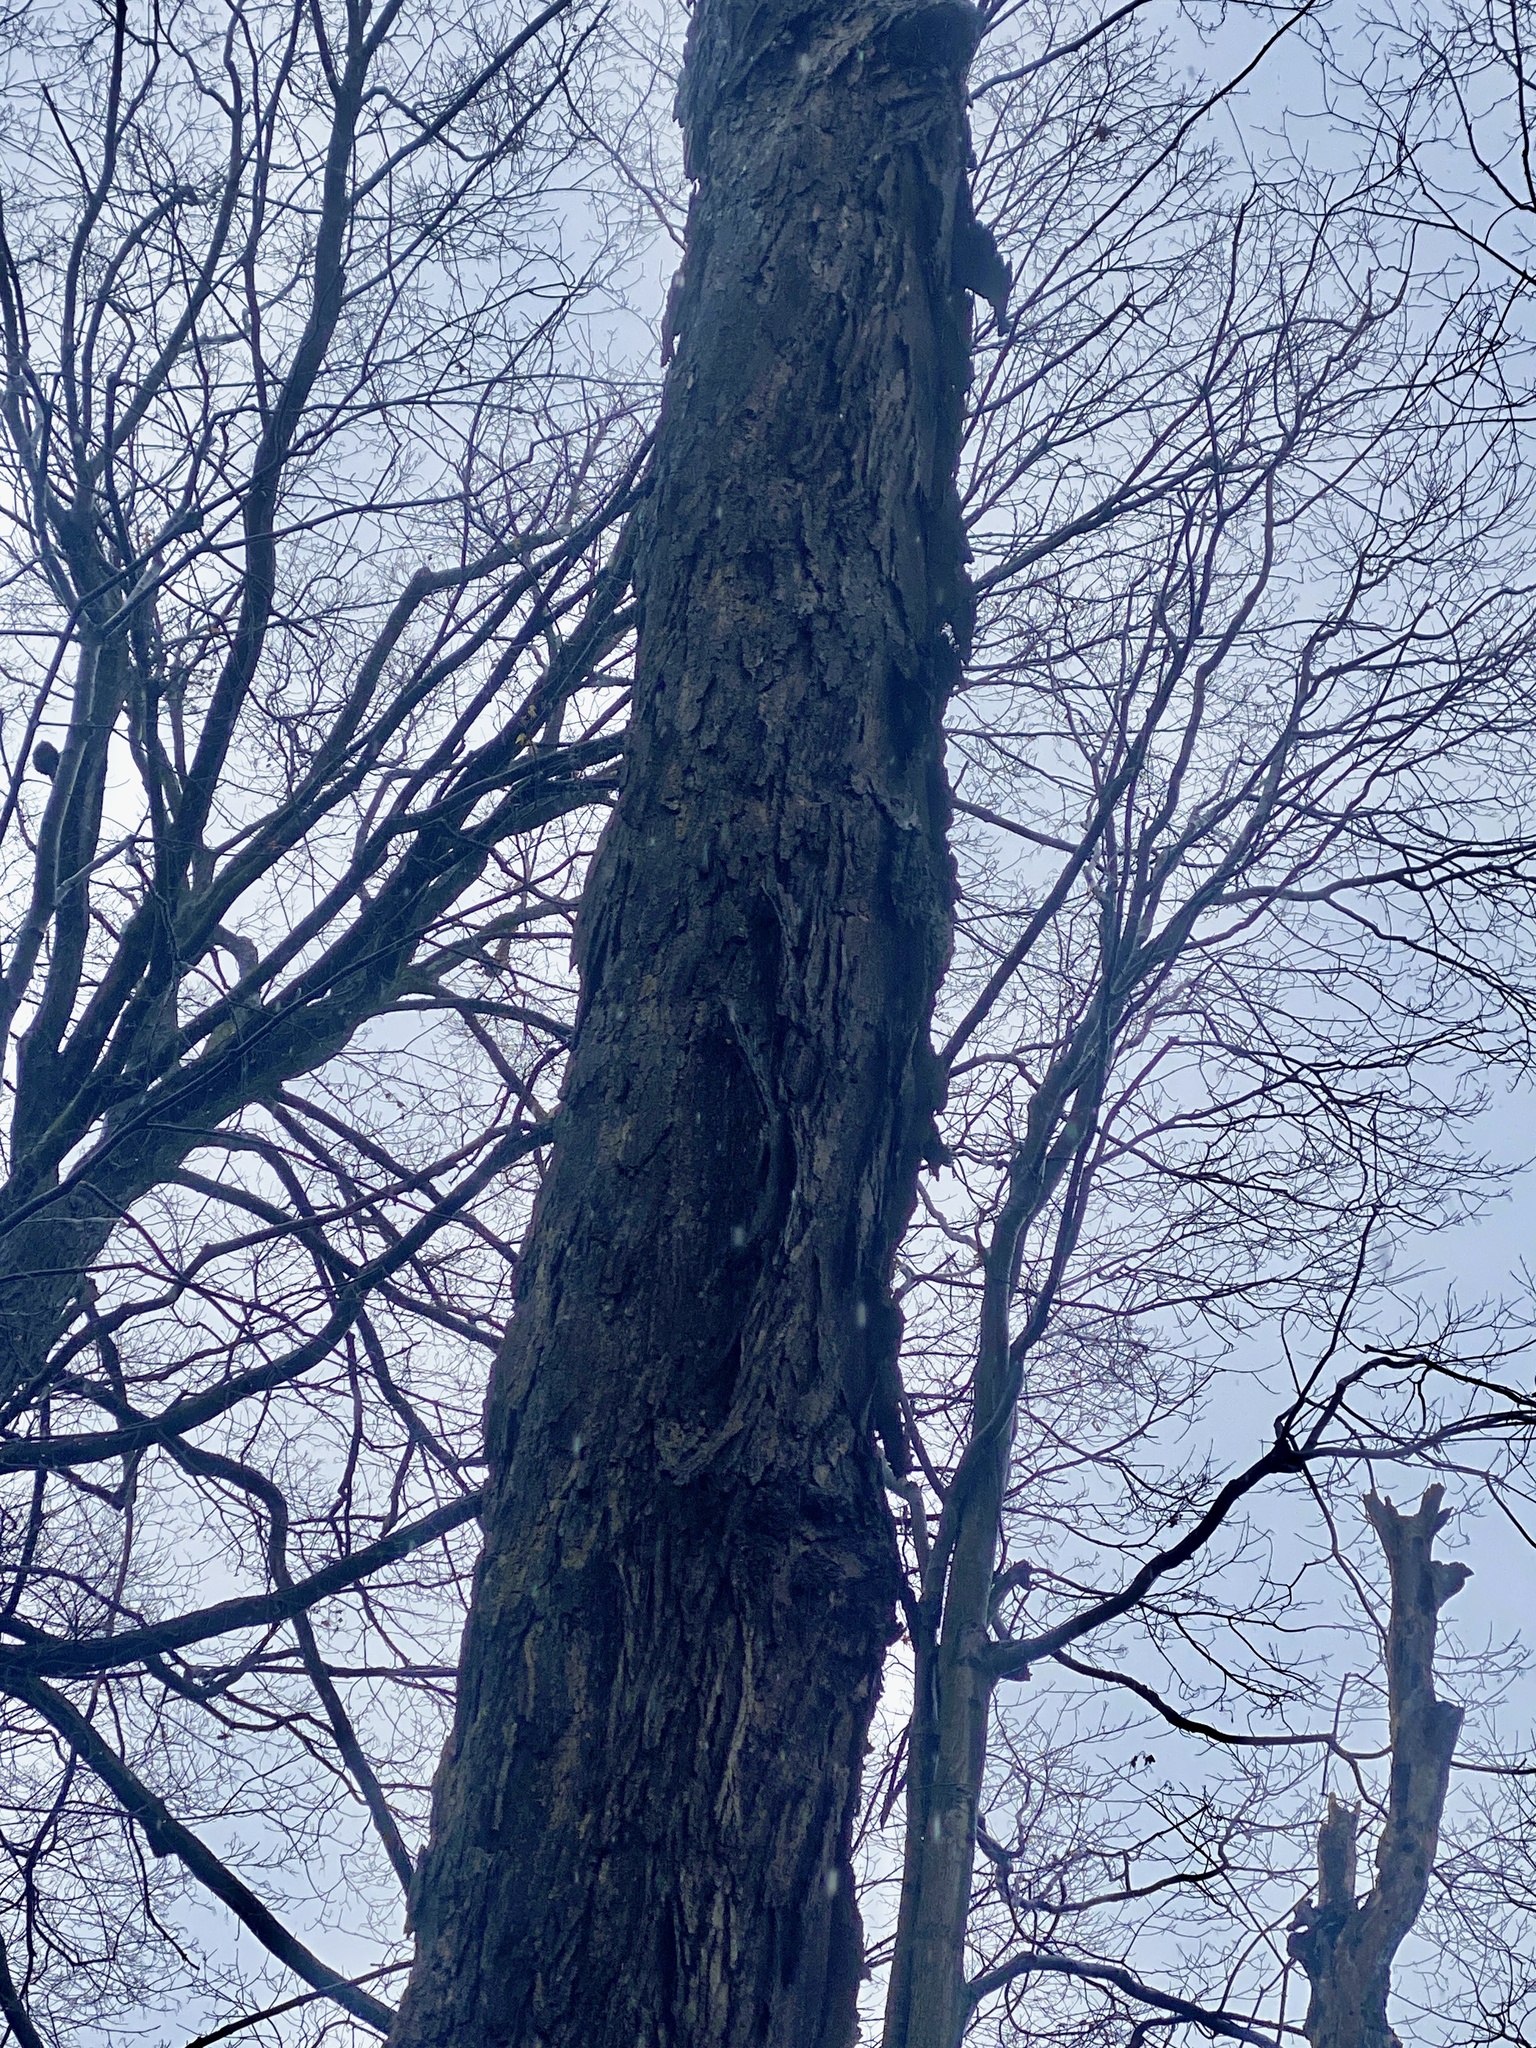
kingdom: Plantae
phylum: Tracheophyta
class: Magnoliopsida
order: Fagales
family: Juglandaceae
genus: Carya
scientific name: Carya ovata
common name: Shagbark hickory
